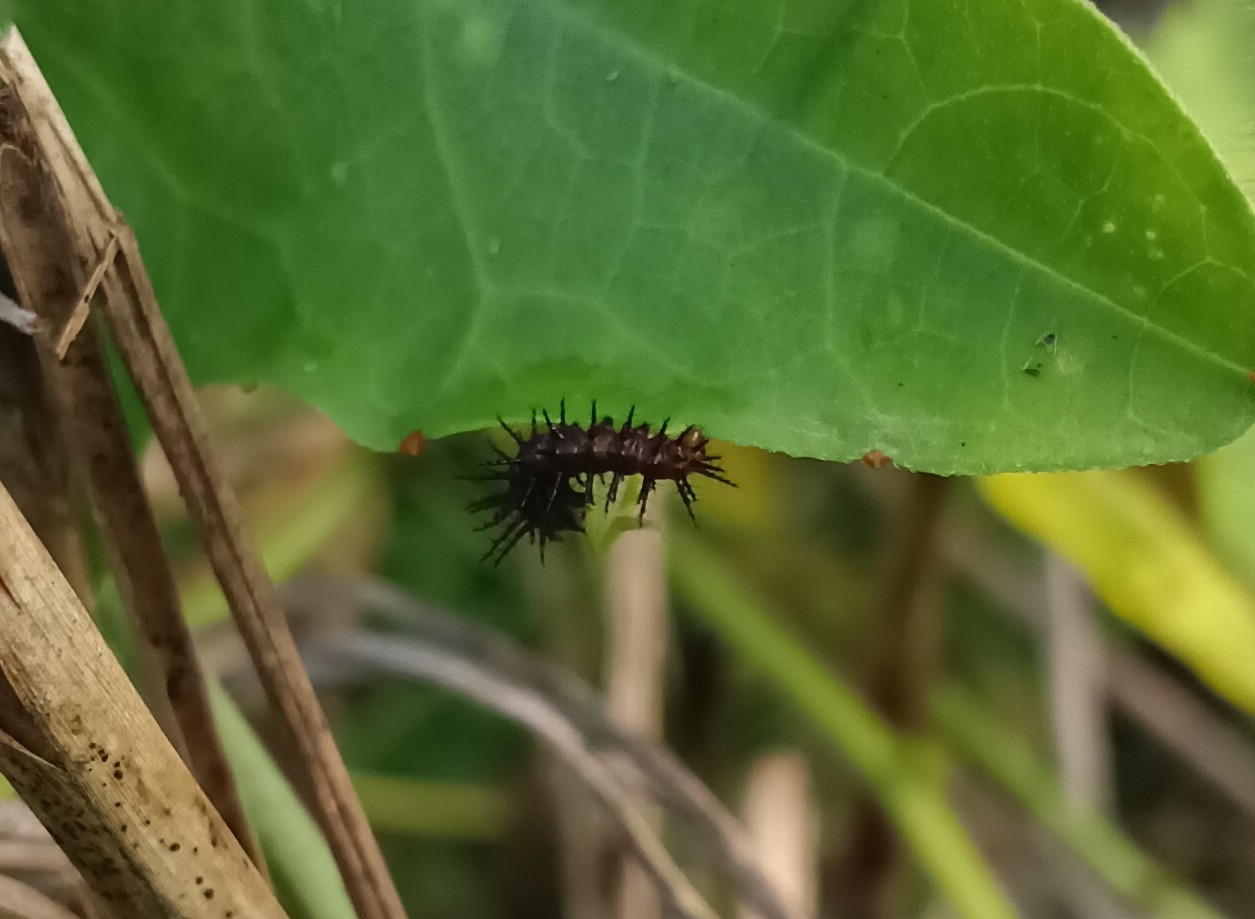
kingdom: Animalia
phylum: Arthropoda
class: Insecta
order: Lepidoptera
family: Nymphalidae
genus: Acraea
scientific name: Acraea terpsicore
